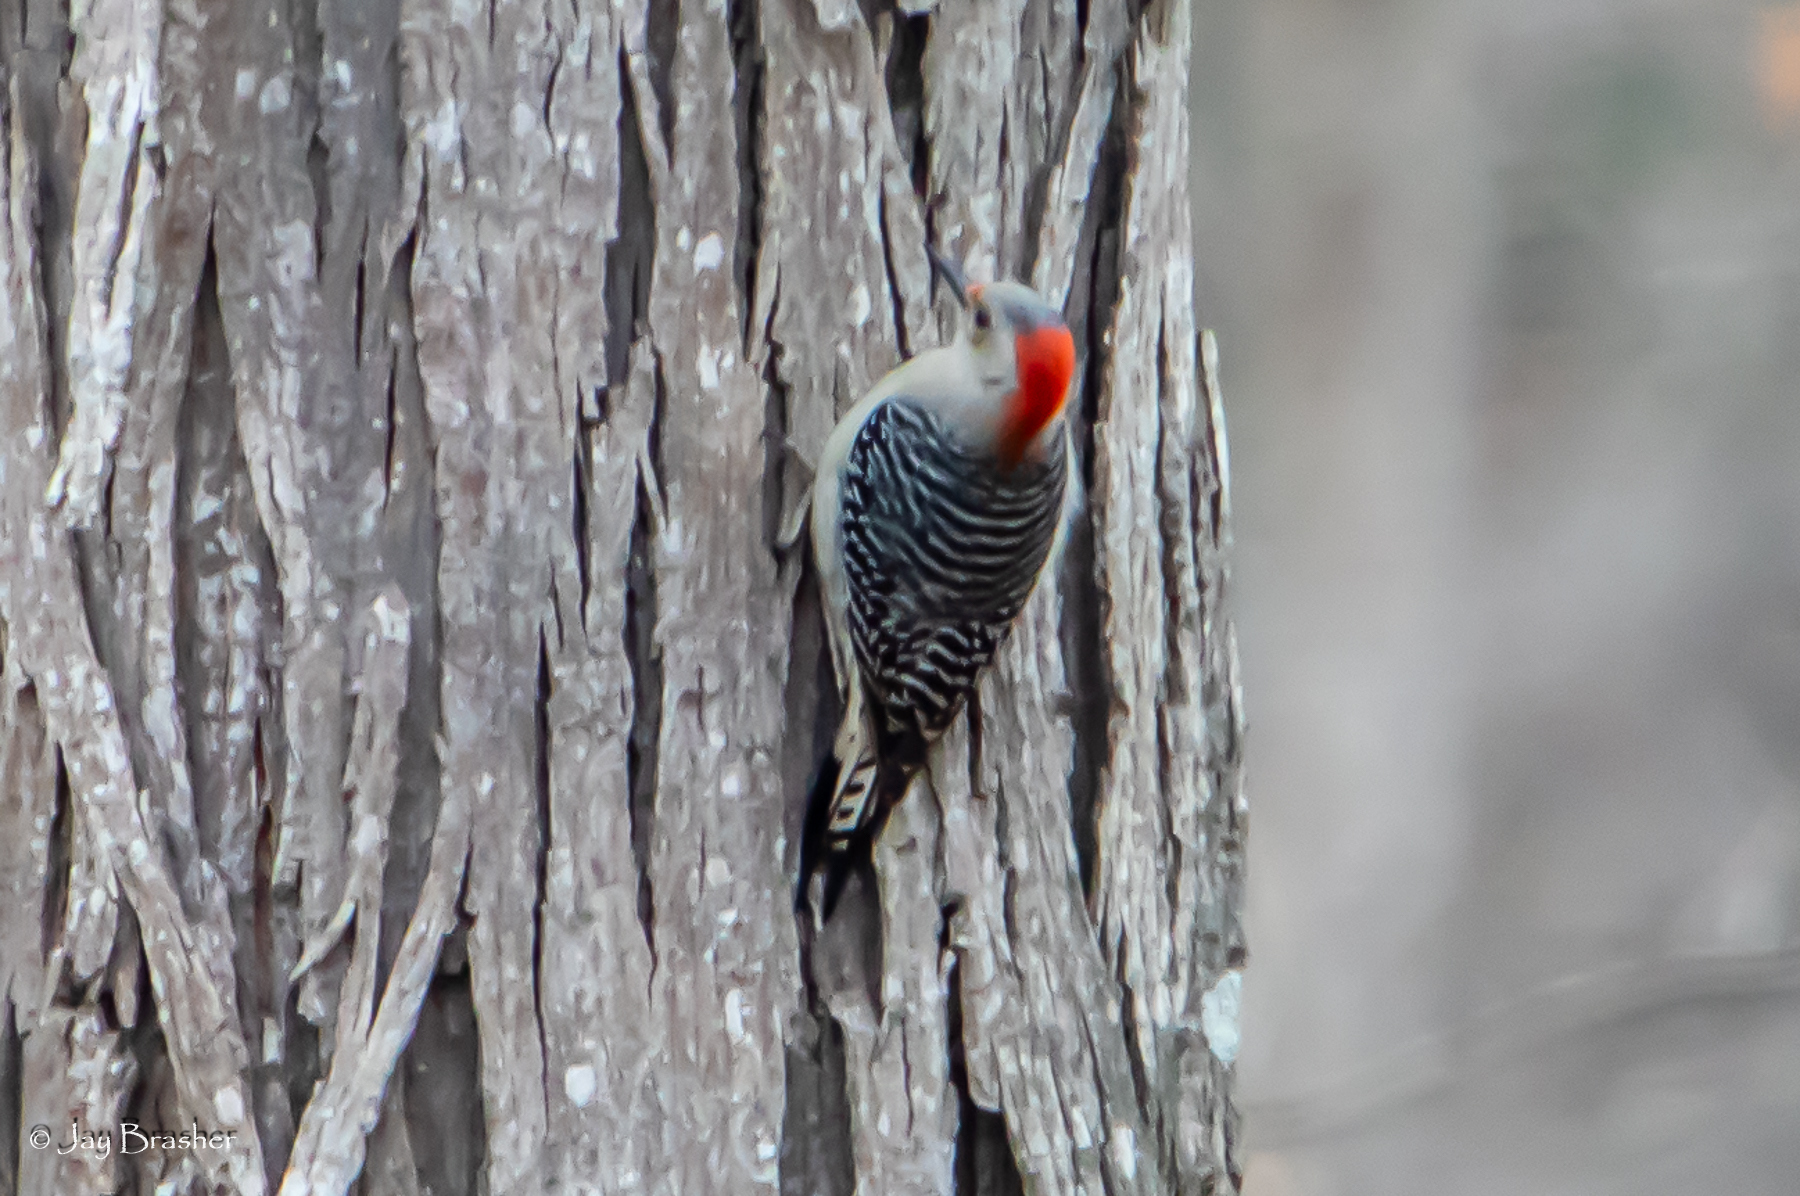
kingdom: Animalia
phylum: Chordata
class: Aves
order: Piciformes
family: Picidae
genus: Melanerpes
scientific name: Melanerpes carolinus
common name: Red-bellied woodpecker
